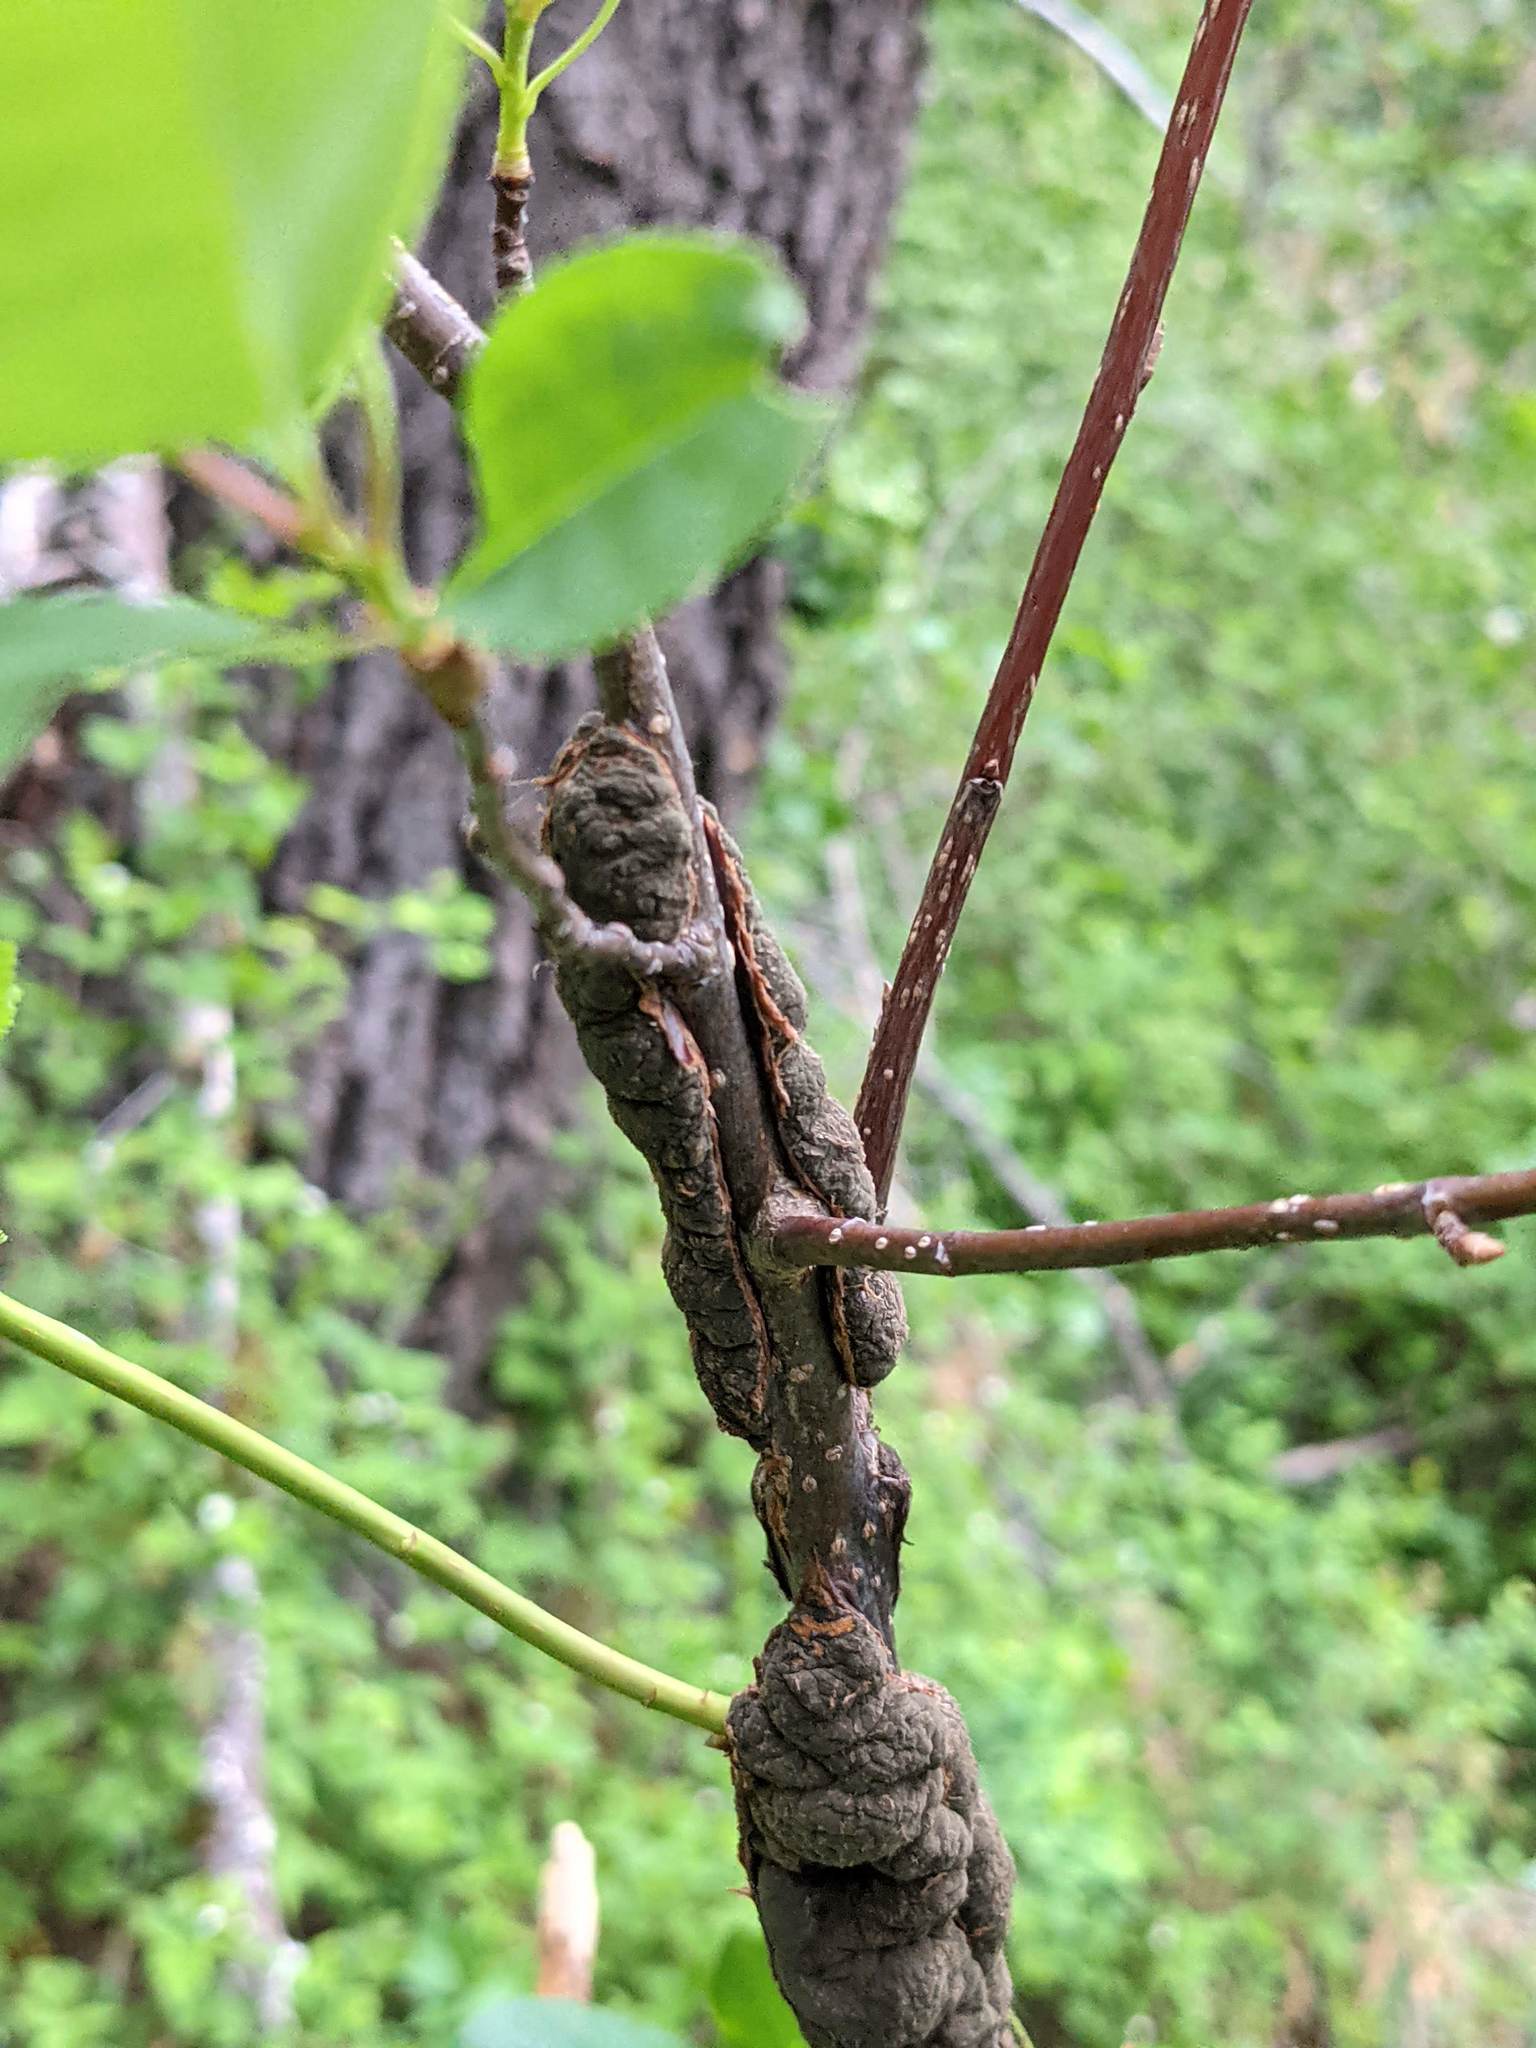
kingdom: Fungi
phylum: Ascomycota
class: Dothideomycetes
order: Venturiales
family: Venturiaceae
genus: Apiosporina
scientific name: Apiosporina morbosa
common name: Black knot
